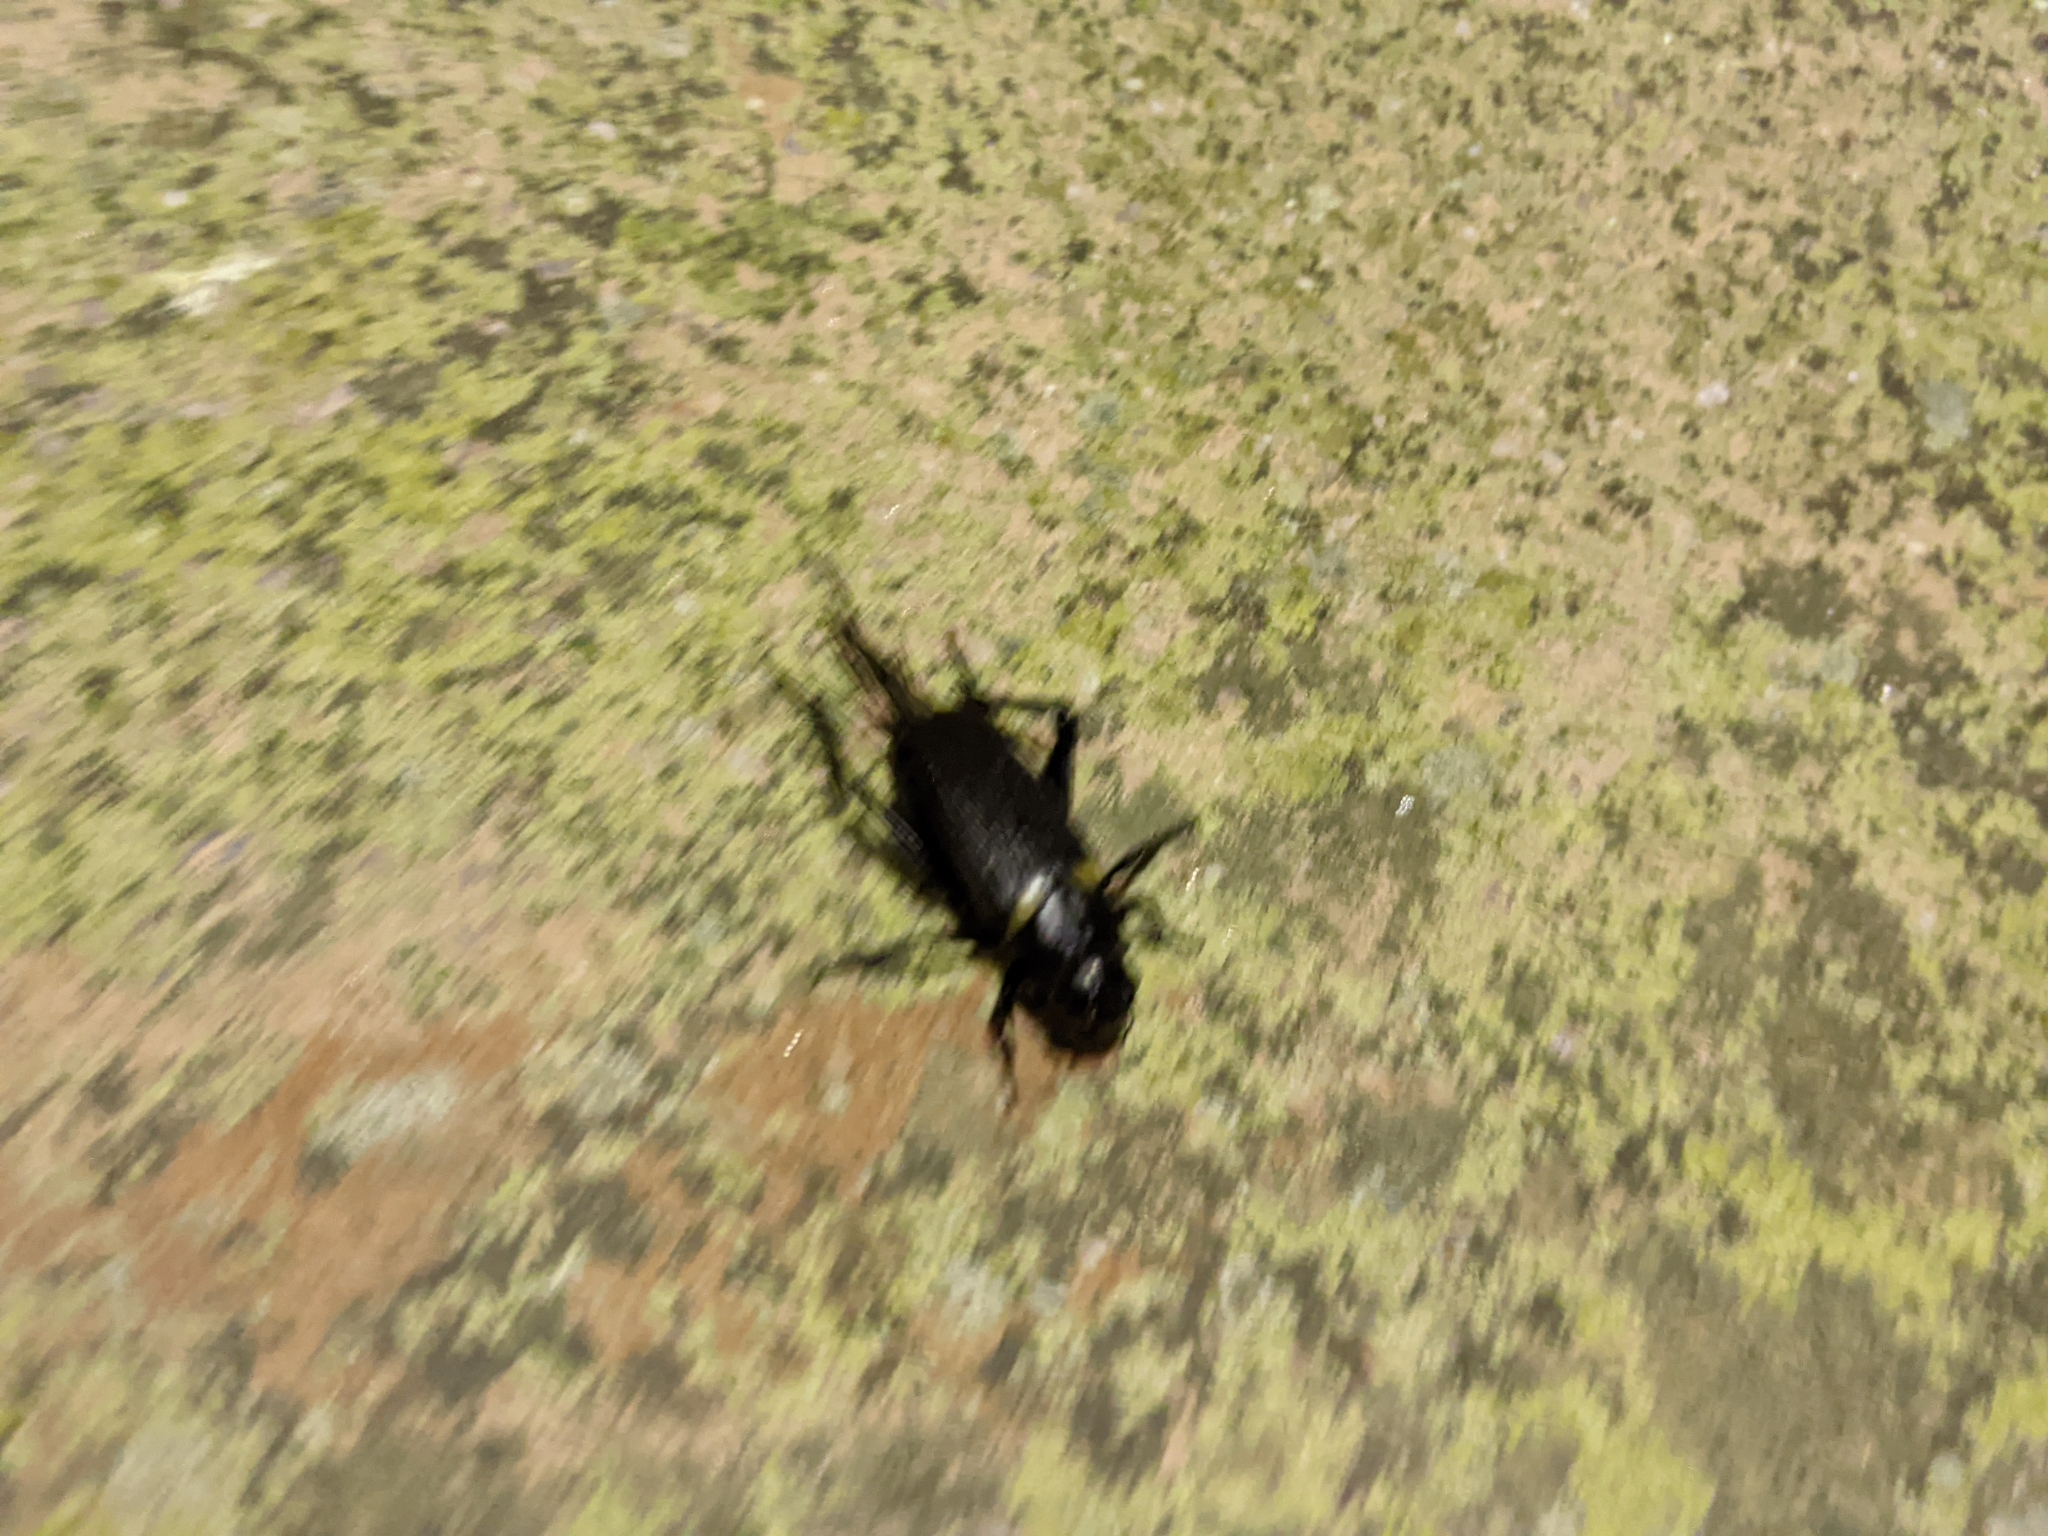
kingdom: Animalia
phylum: Arthropoda
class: Insecta
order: Orthoptera
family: Gryllidae
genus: Gryllus
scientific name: Gryllus bimaculatus
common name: Two-spotted cricket
